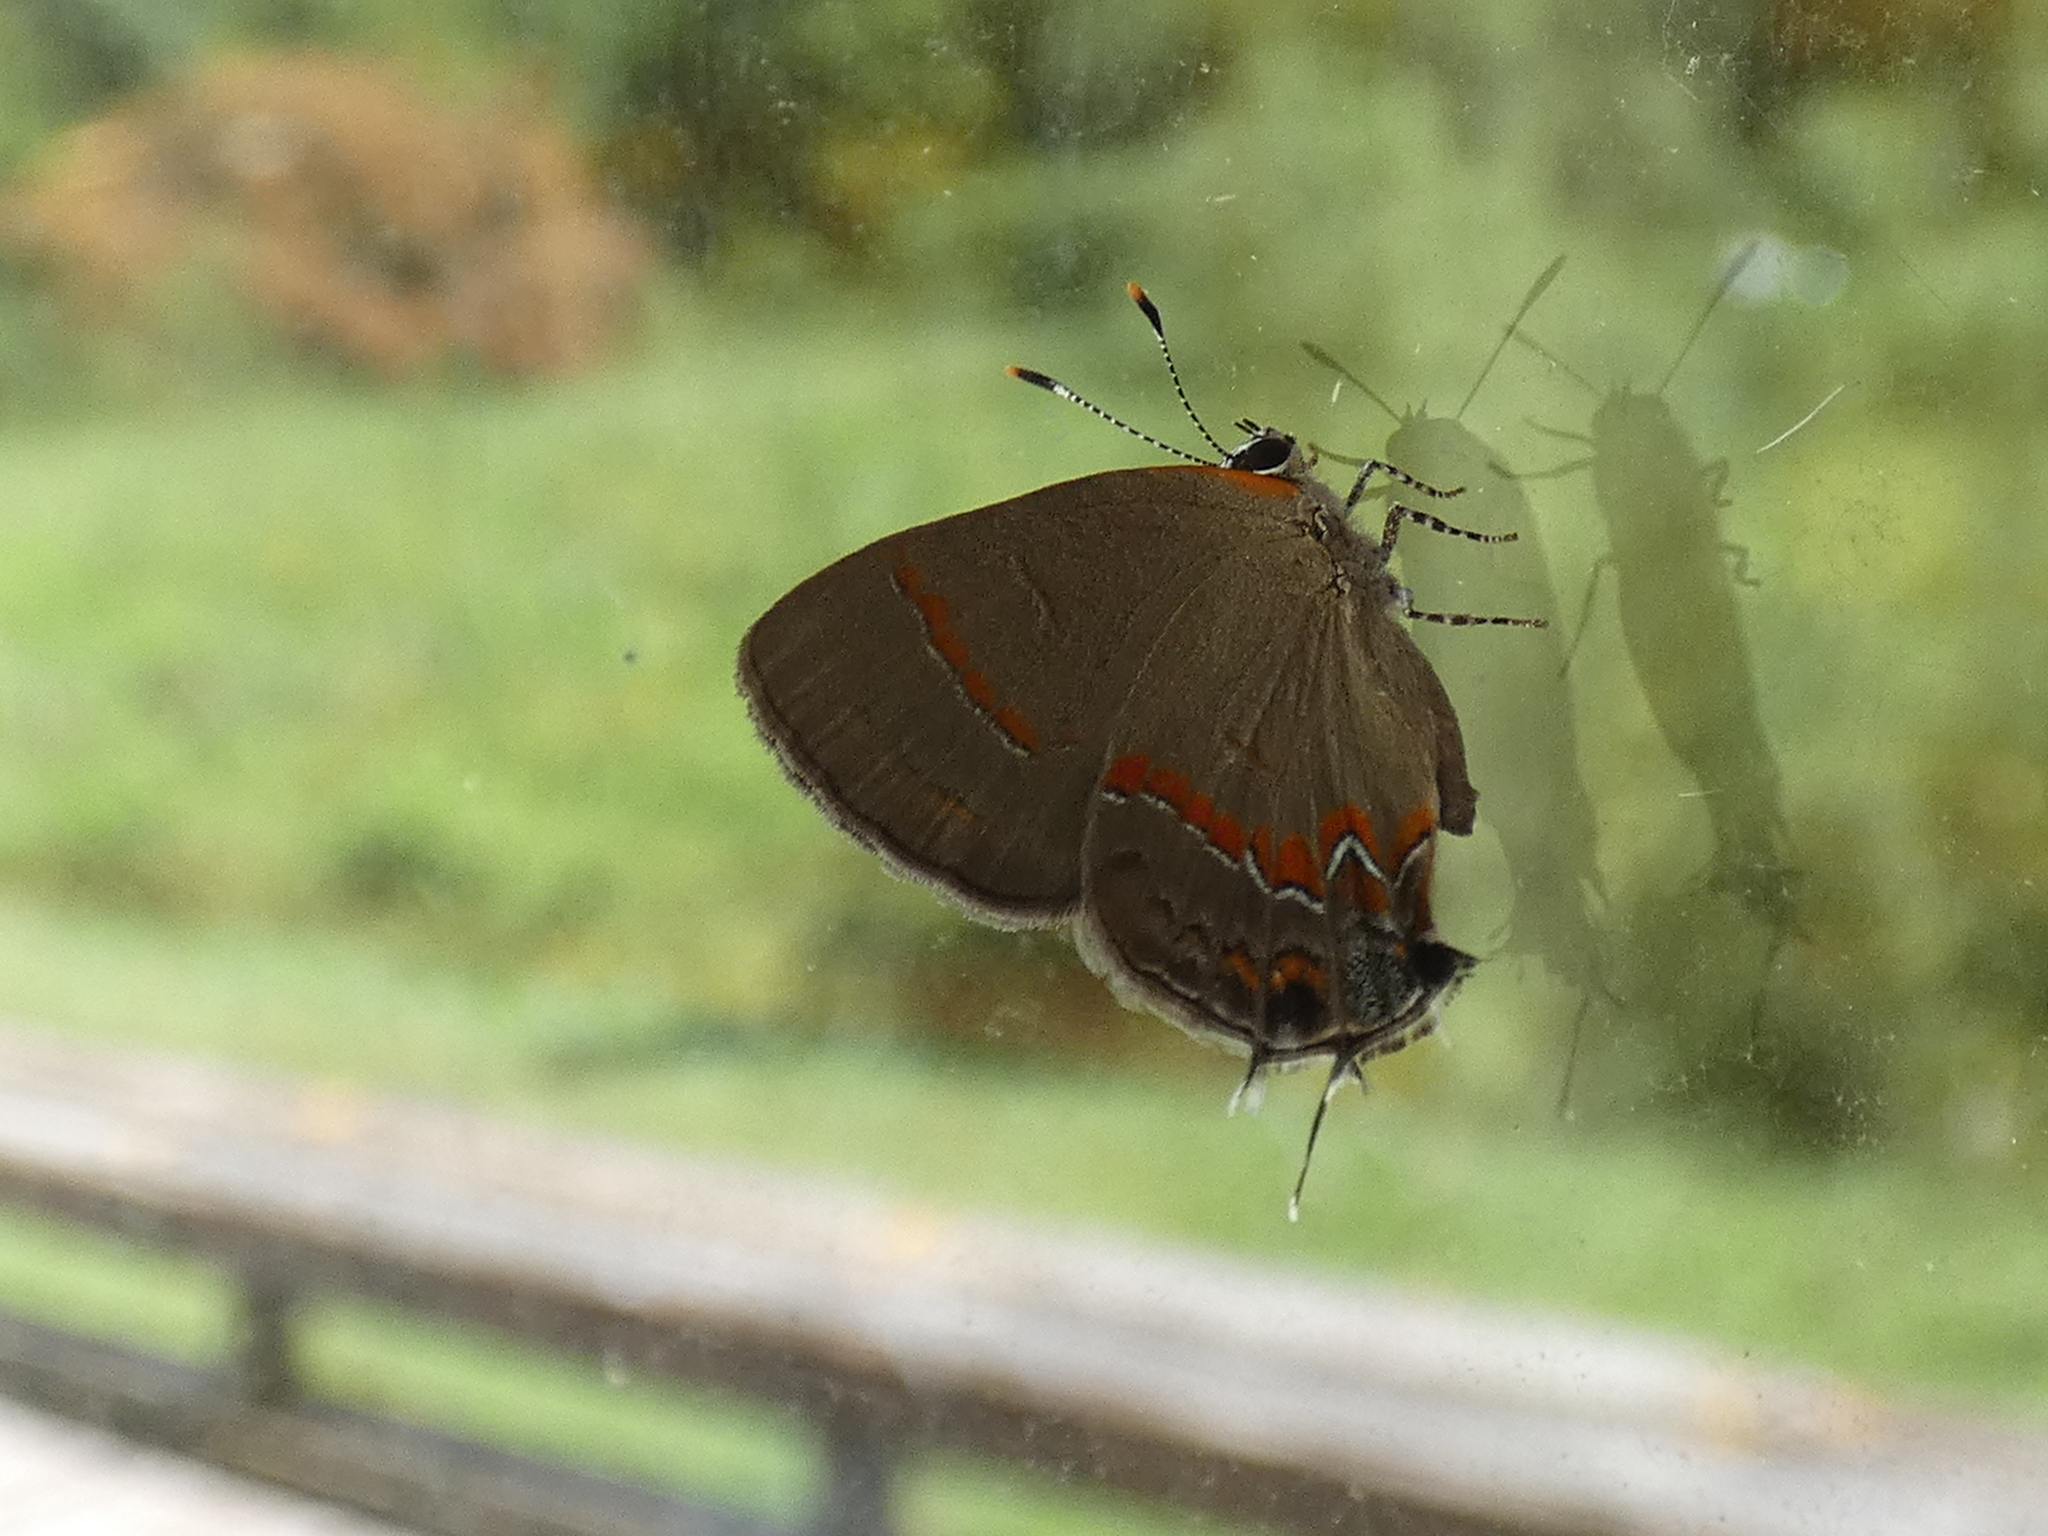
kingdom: Animalia
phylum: Arthropoda
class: Insecta
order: Lepidoptera
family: Lycaenidae
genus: Calycopis
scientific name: Calycopis cecrops
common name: Red-banded hairstreak
